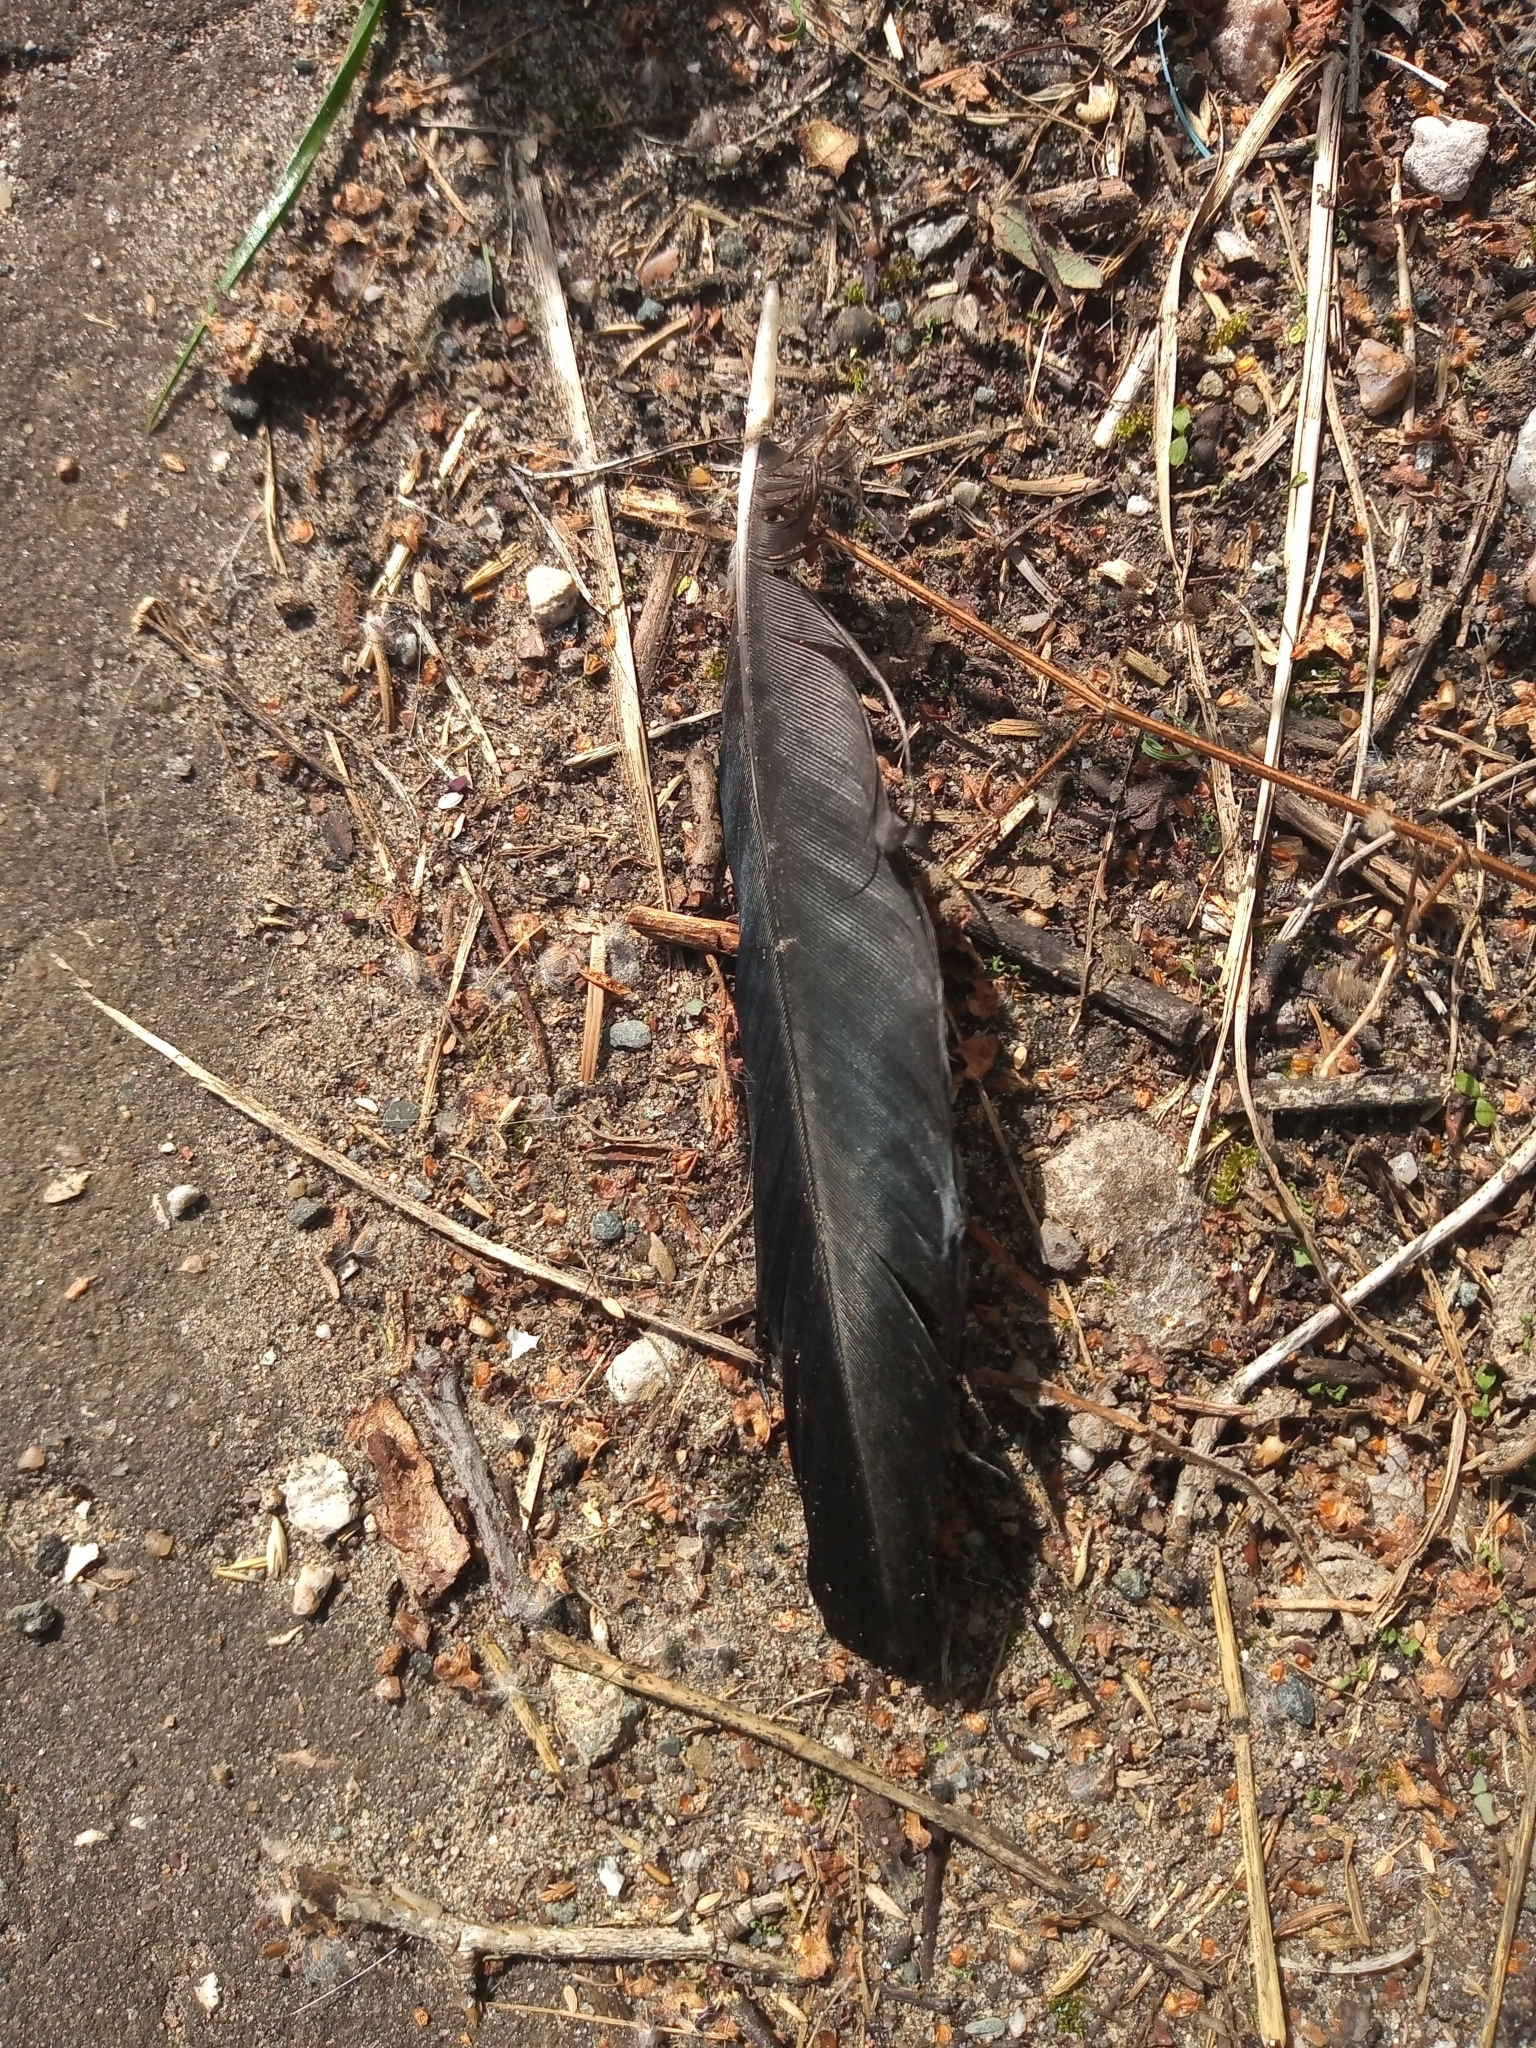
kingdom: Animalia
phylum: Chordata
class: Aves
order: Passeriformes
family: Corvidae
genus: Corvus
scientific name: Corvus
